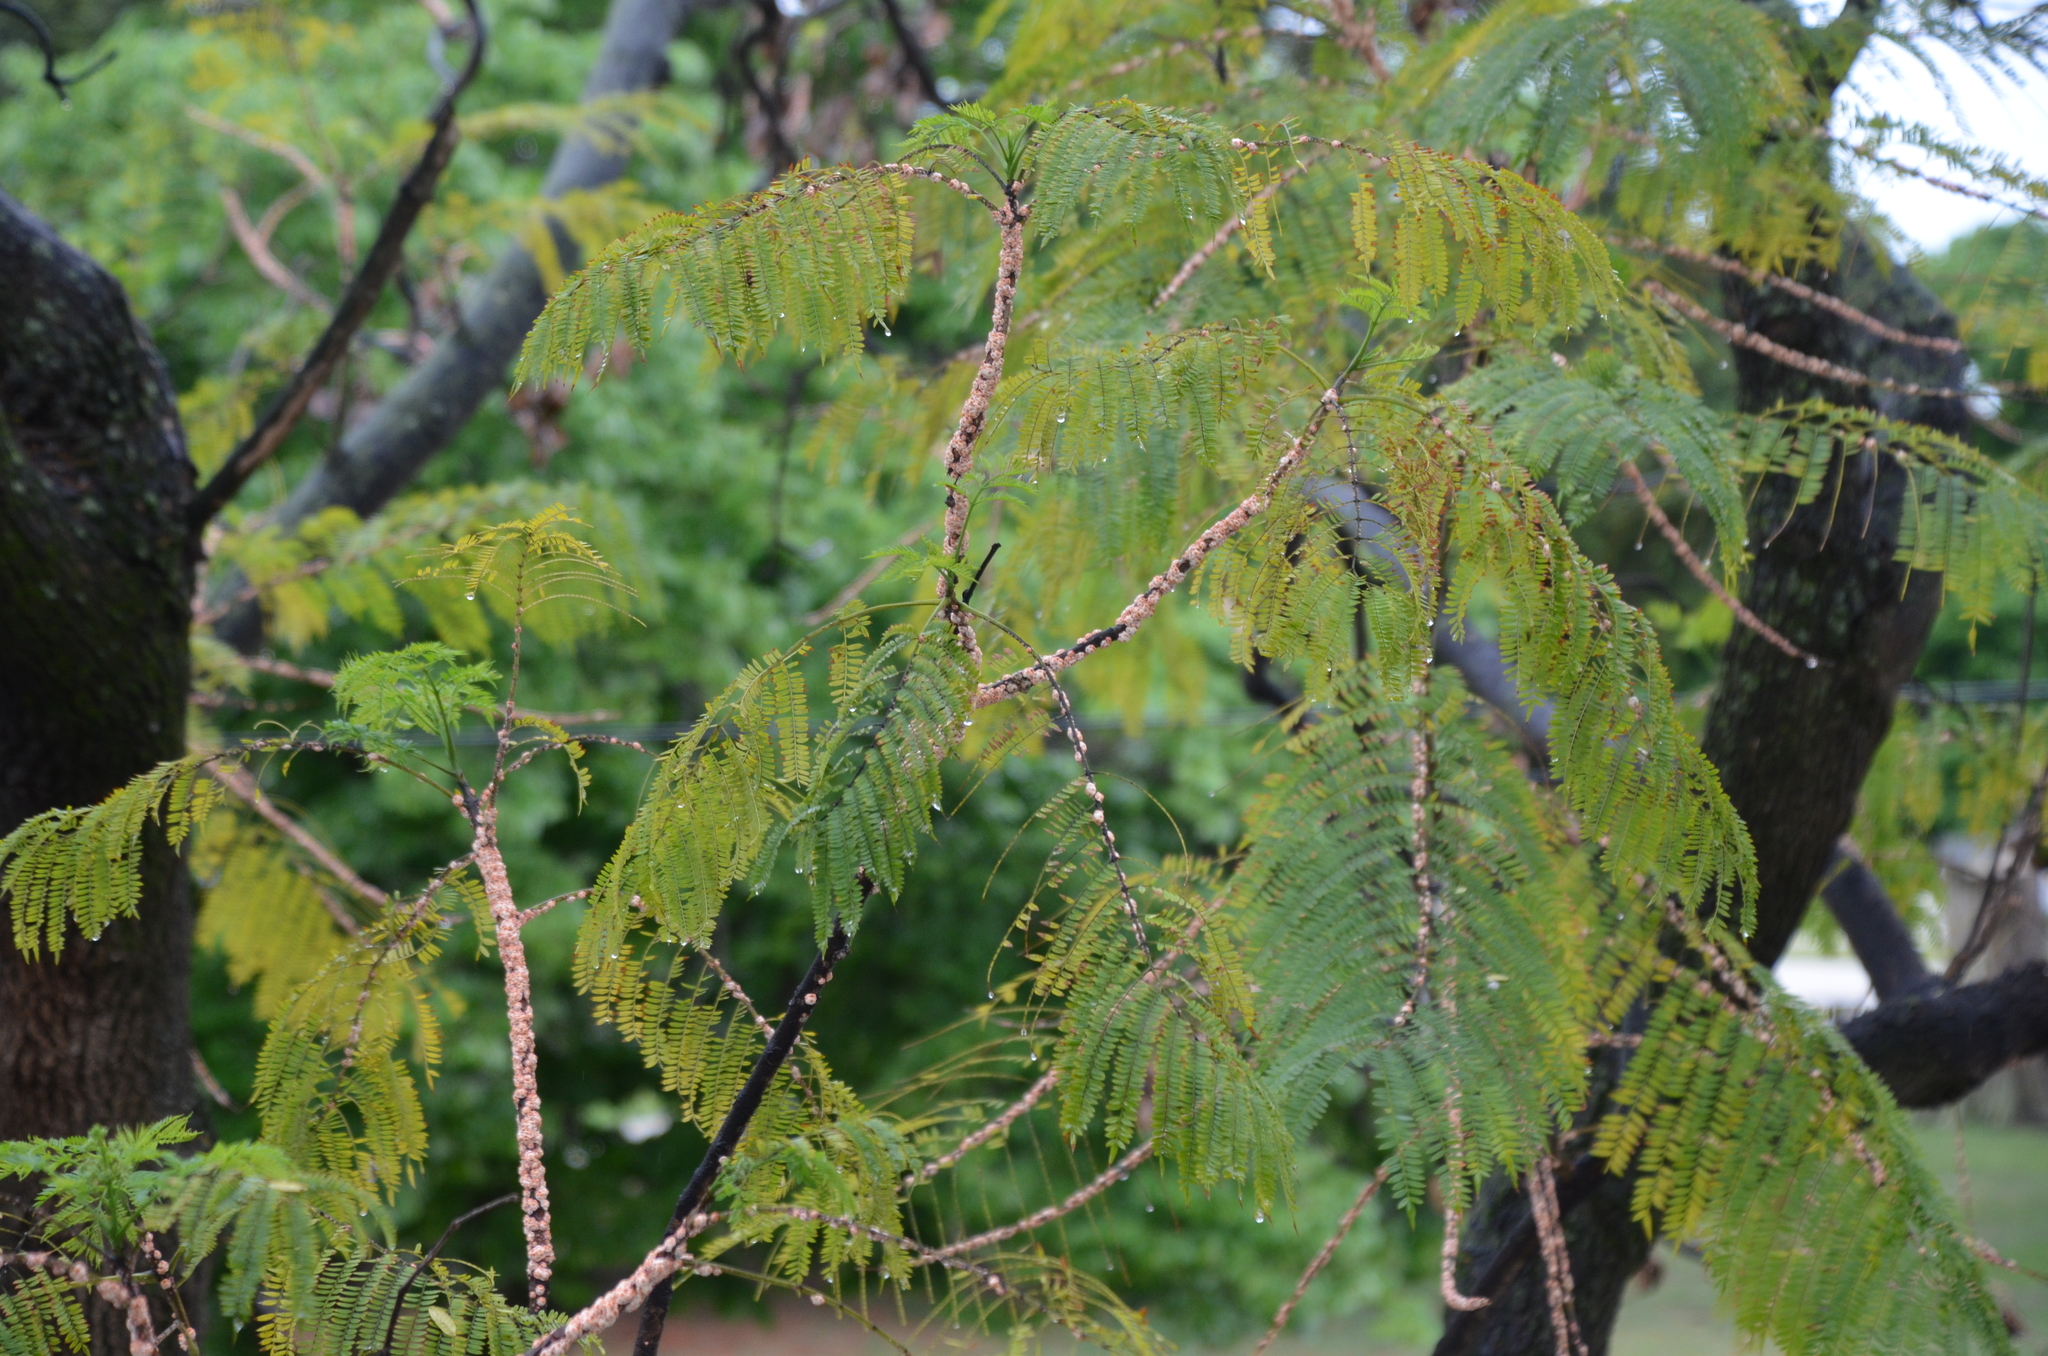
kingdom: Plantae
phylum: Tracheophyta
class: Magnoliopsida
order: Lamiales
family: Bignoniaceae
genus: Jacaranda
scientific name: Jacaranda mimosifolia
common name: Black poui
